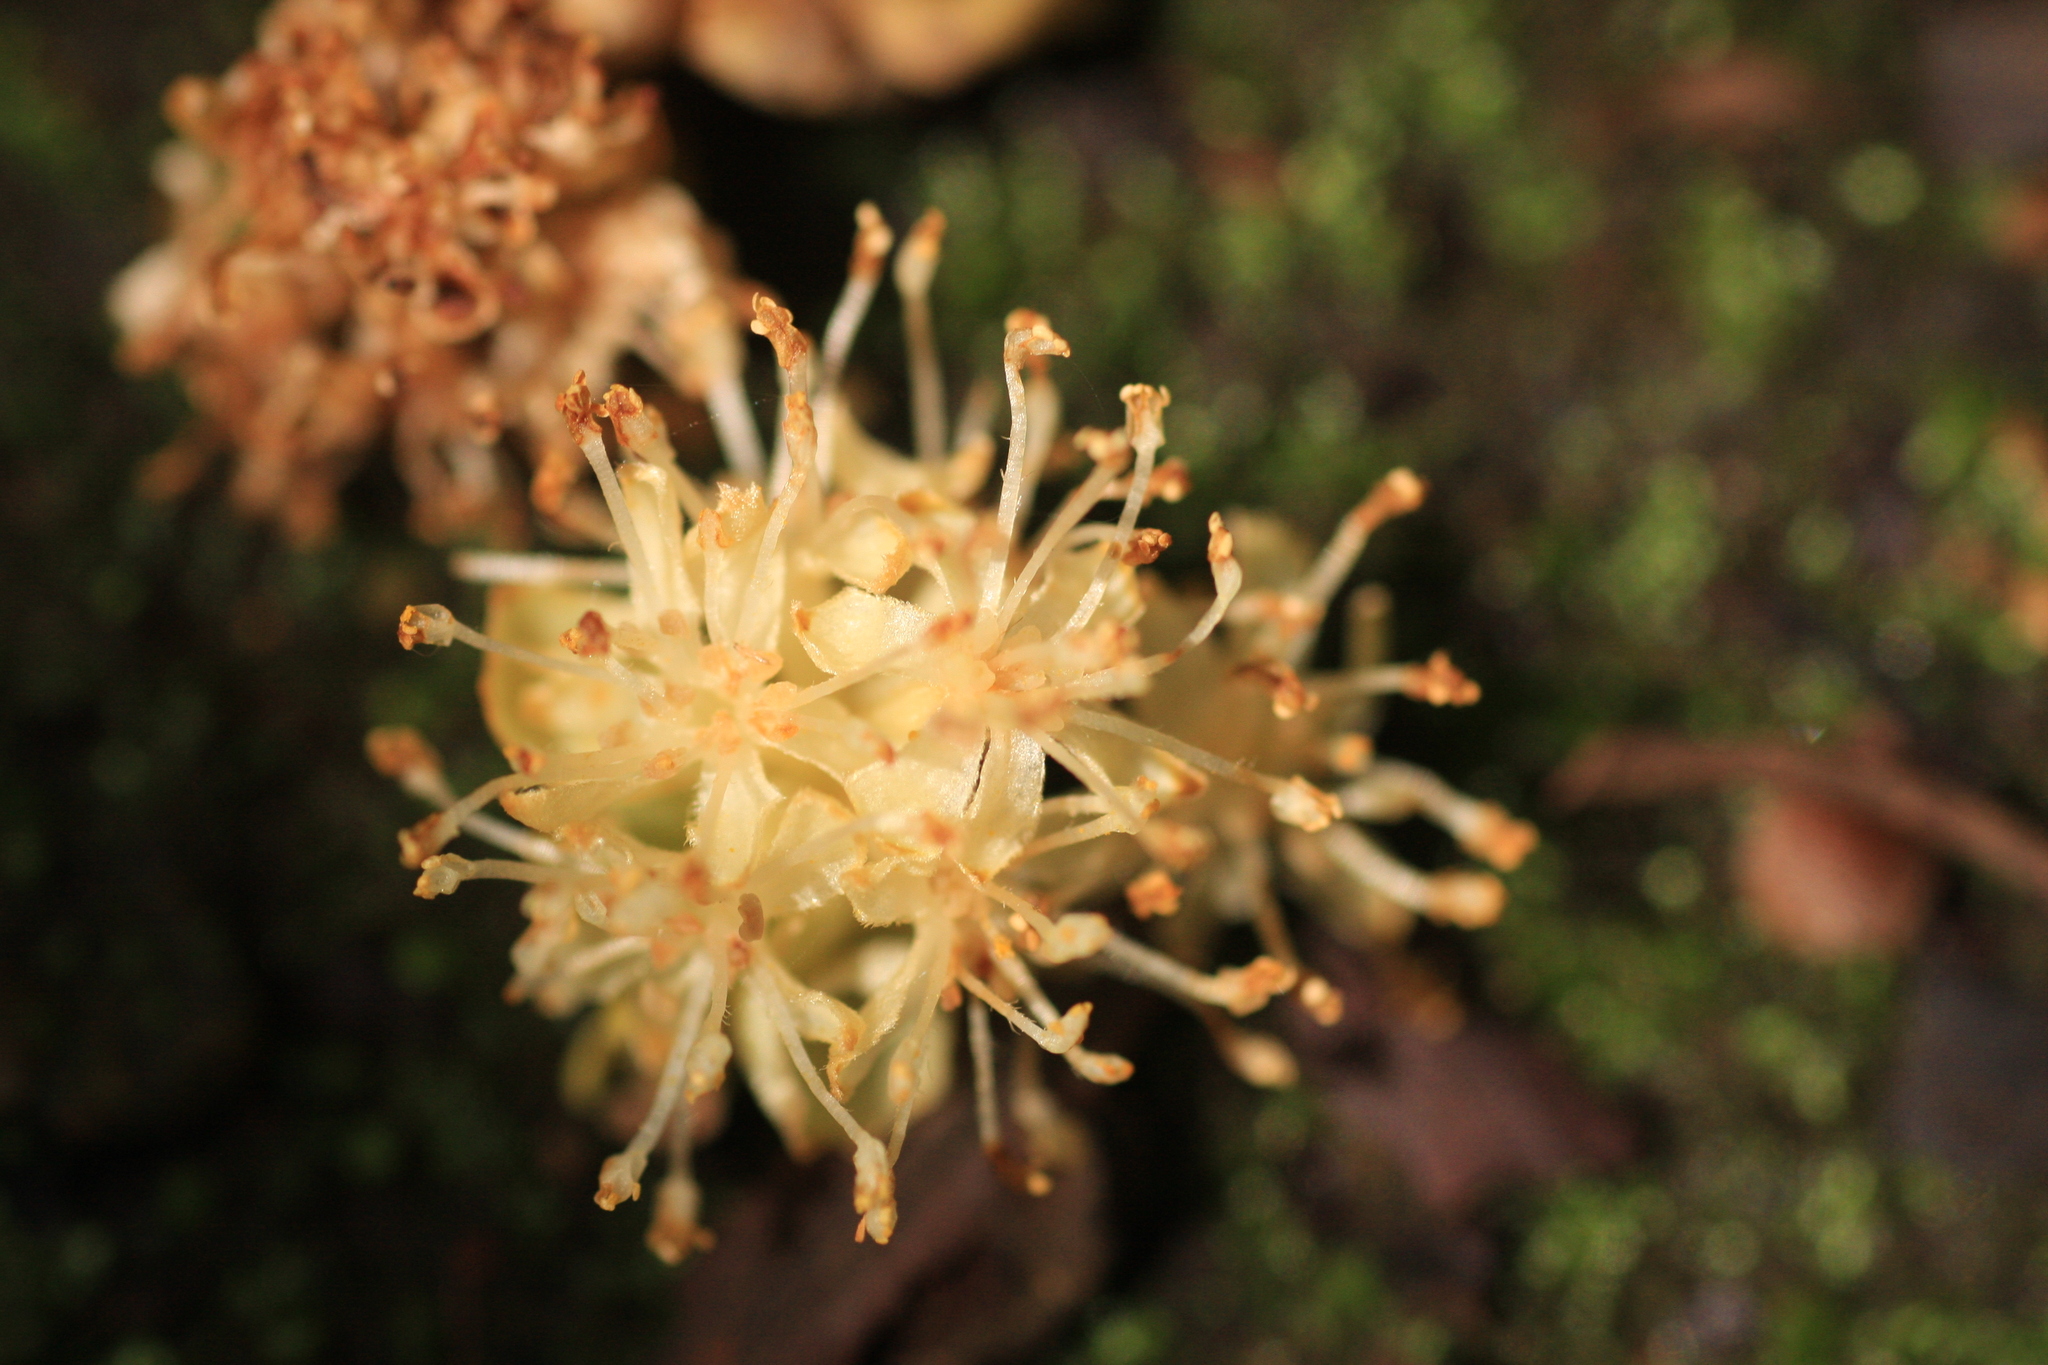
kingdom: Plantae
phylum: Tracheophyta
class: Magnoliopsida
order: Laurales
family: Lauraceae
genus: Litsea
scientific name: Litsea stocksii
